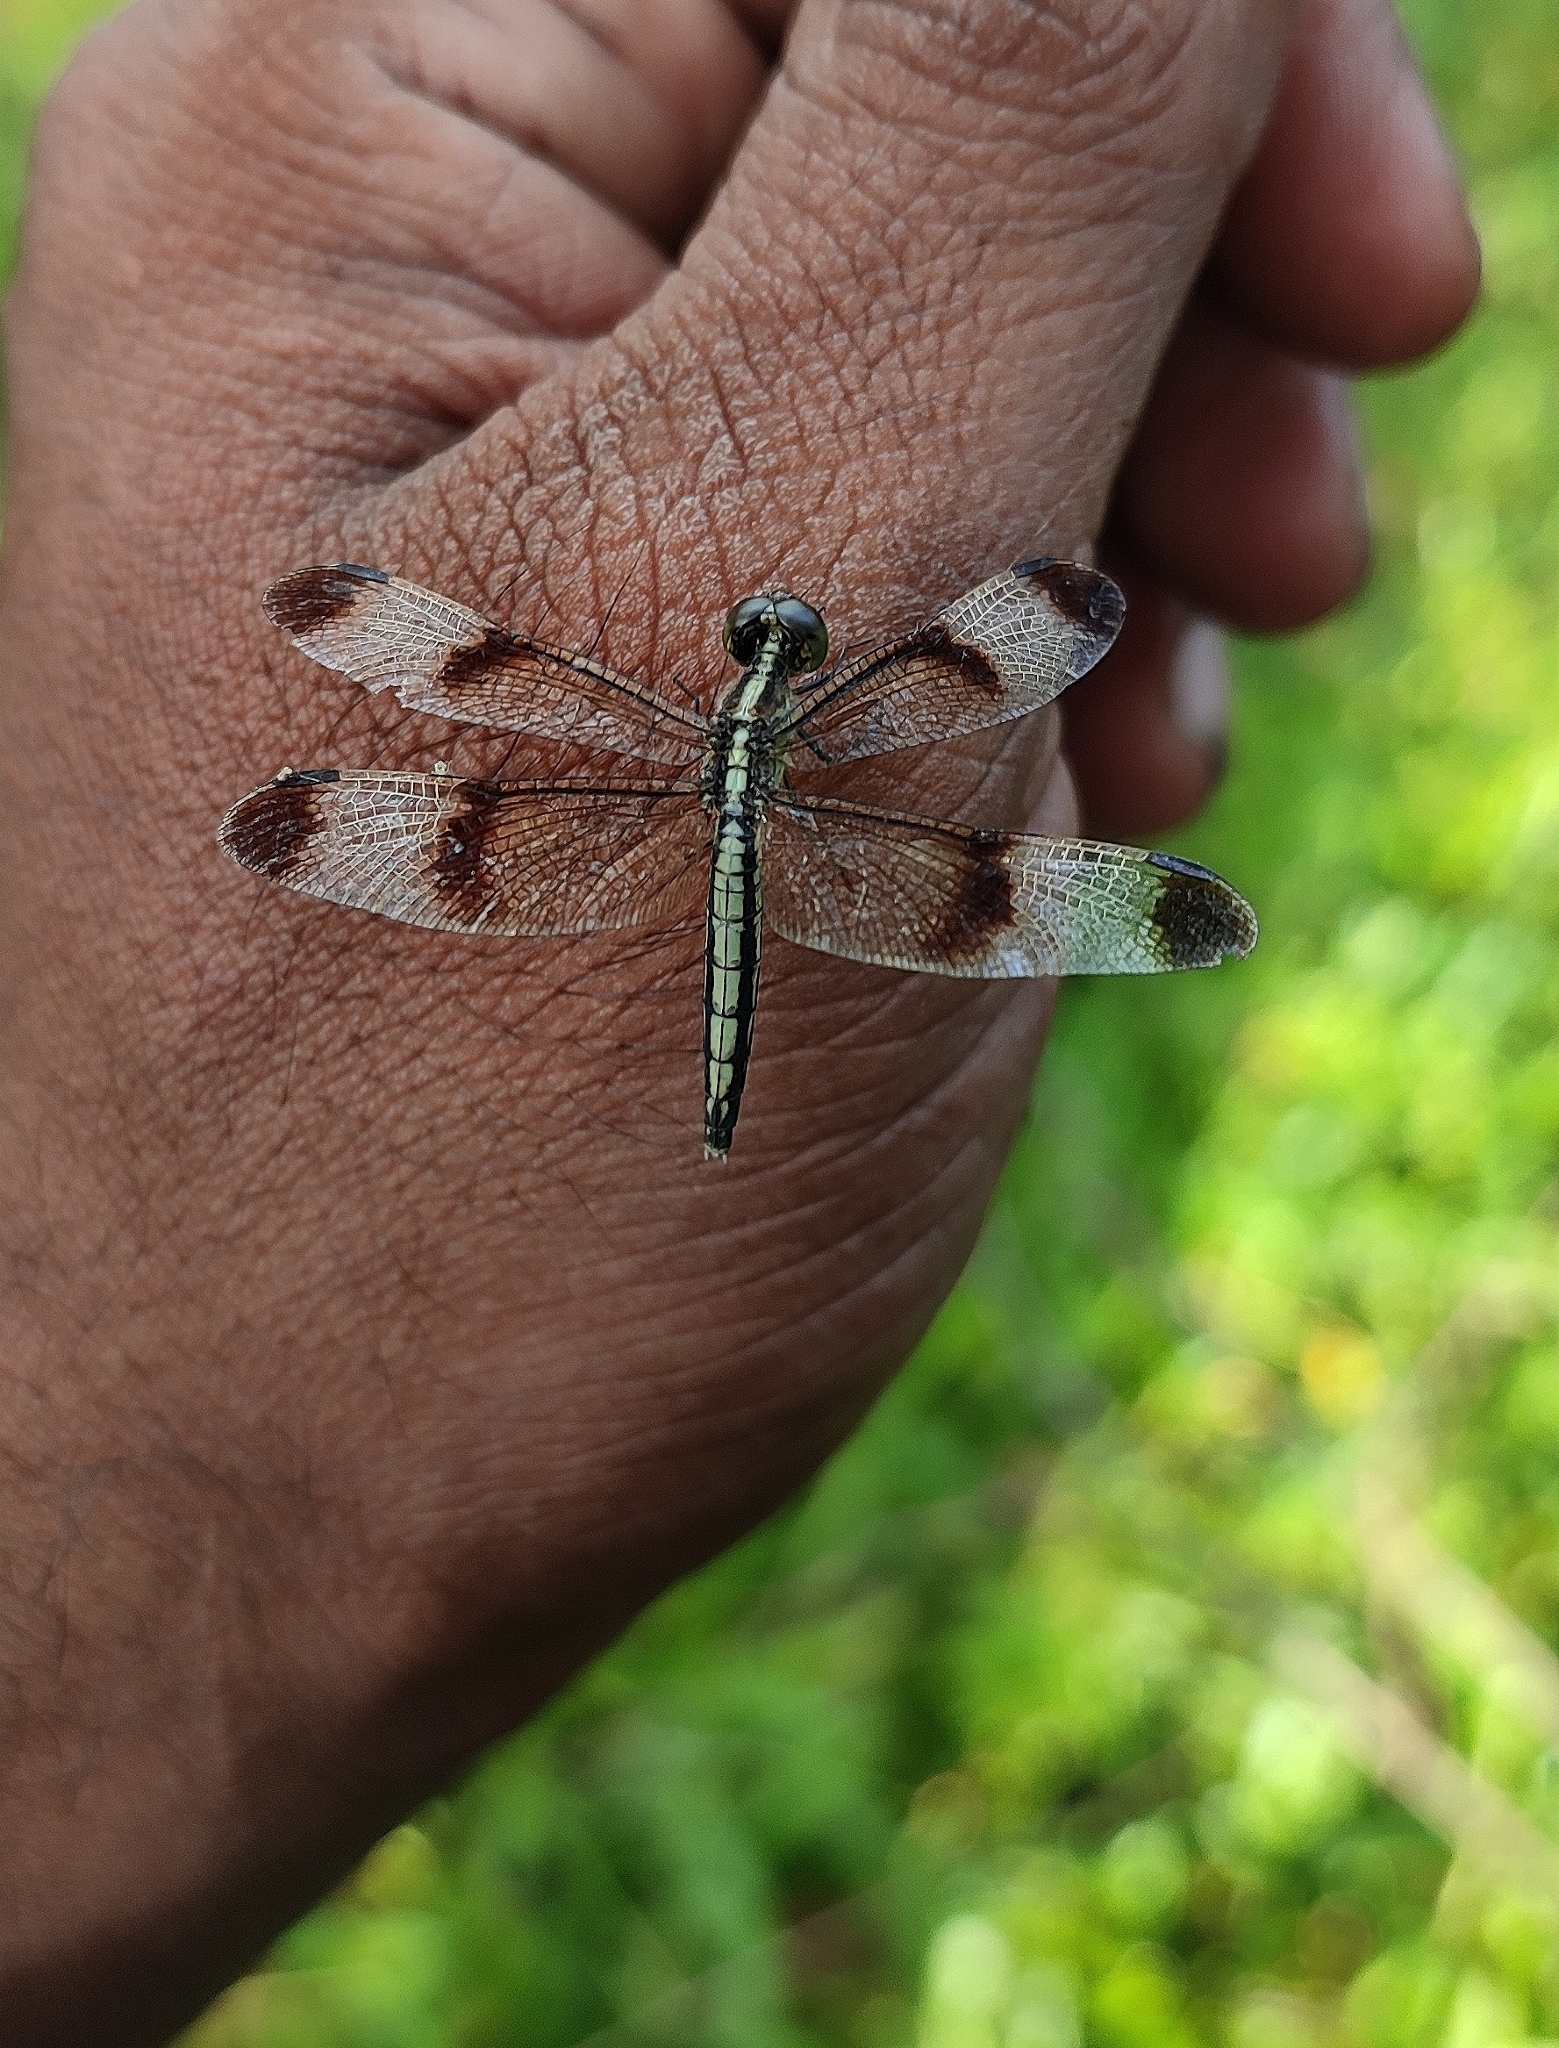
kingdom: Animalia
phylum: Arthropoda
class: Insecta
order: Odonata
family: Libellulidae
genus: Neurothemis
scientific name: Neurothemis tullia
